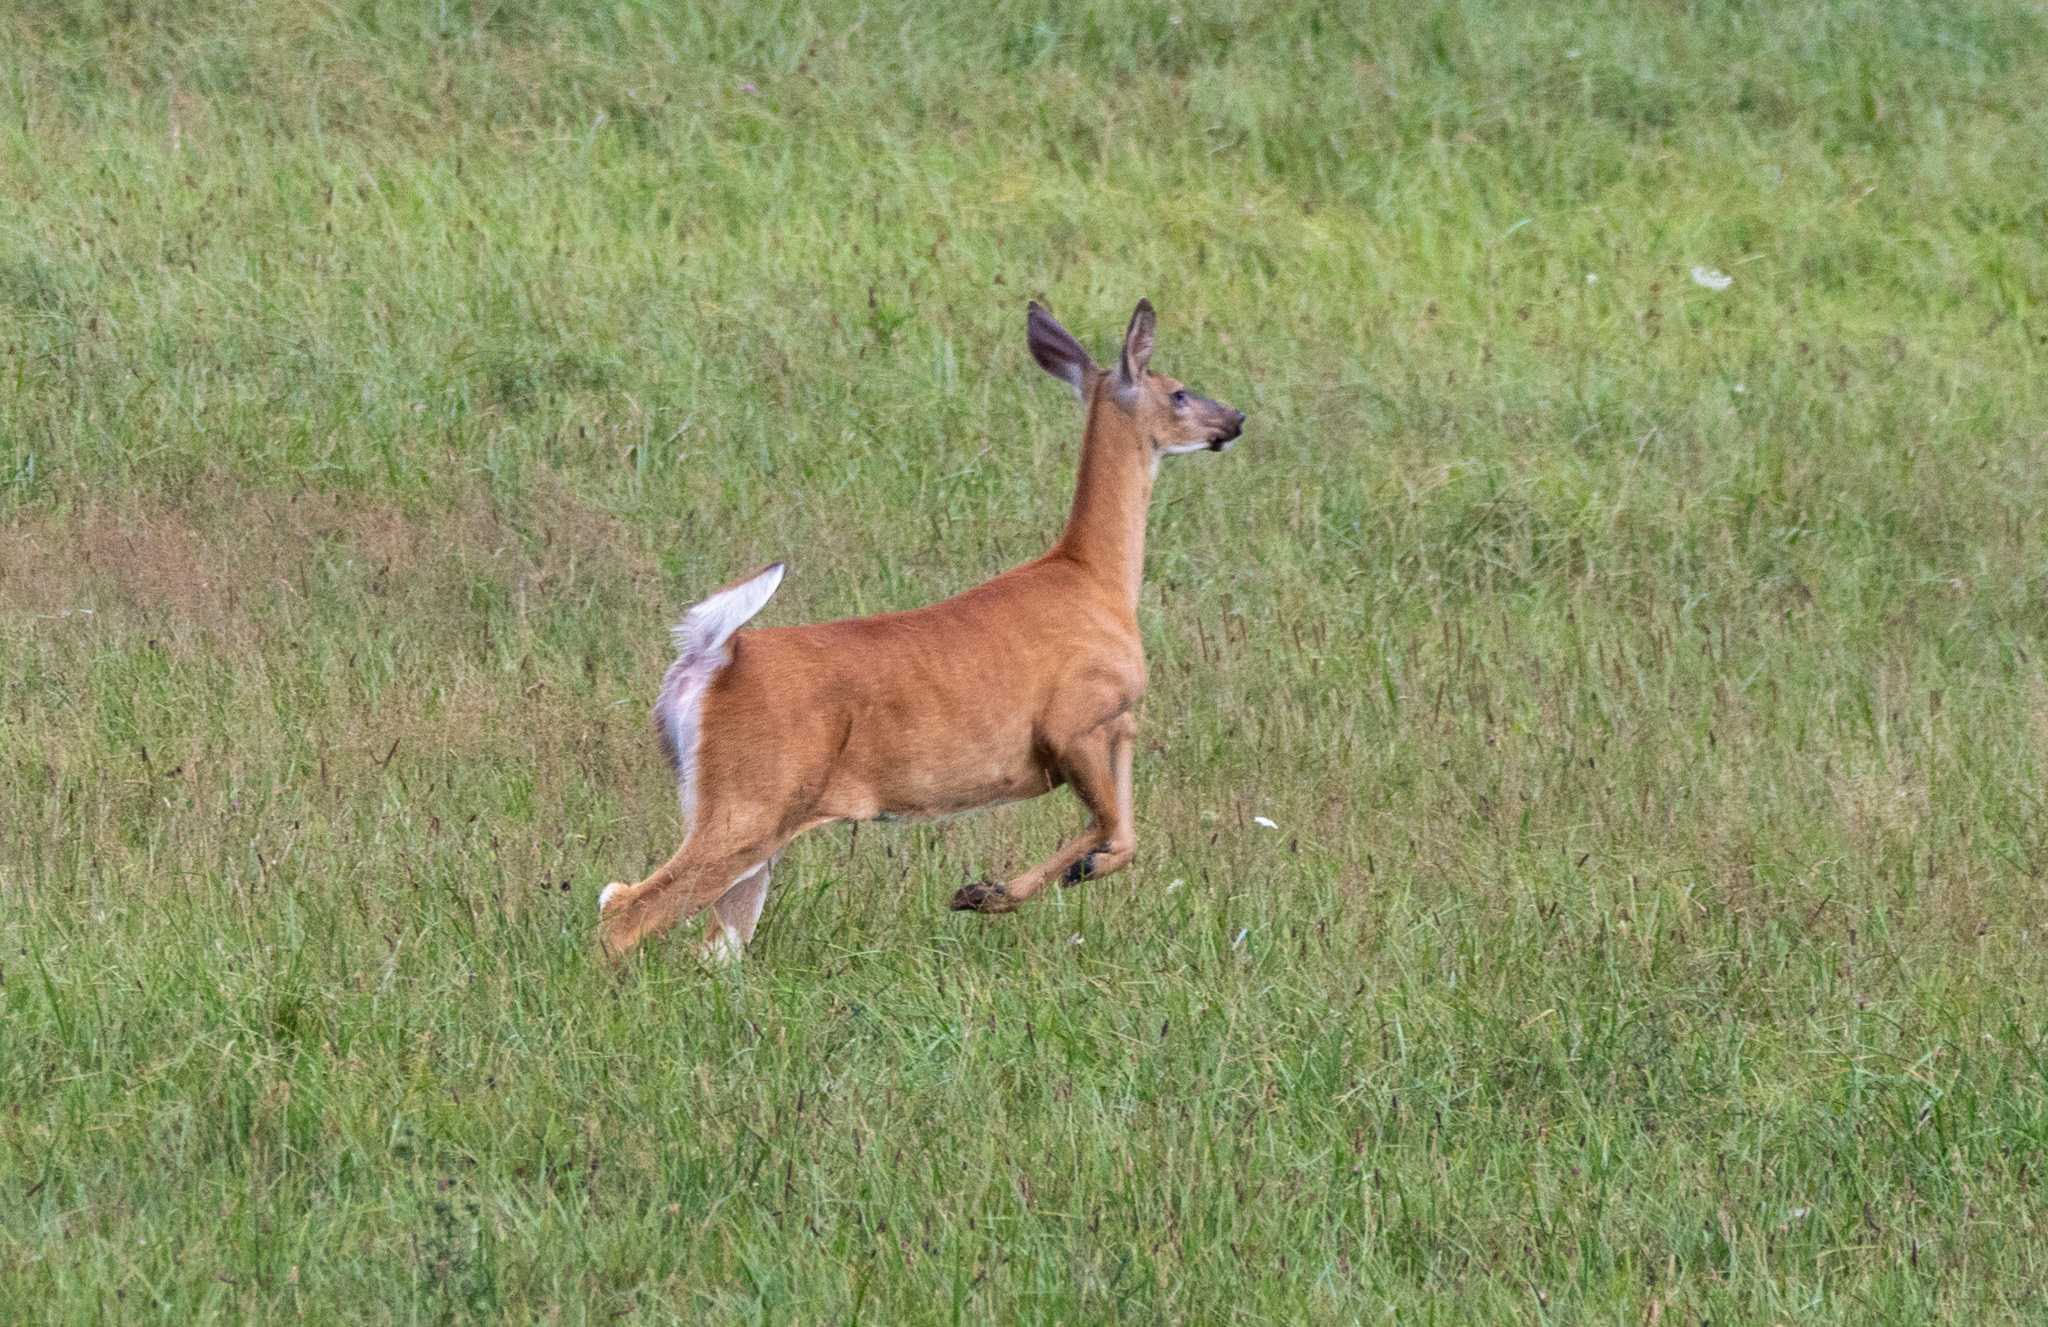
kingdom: Animalia
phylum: Chordata
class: Mammalia
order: Artiodactyla
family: Cervidae
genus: Odocoileus
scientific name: Odocoileus virginianus
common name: White-tailed deer
